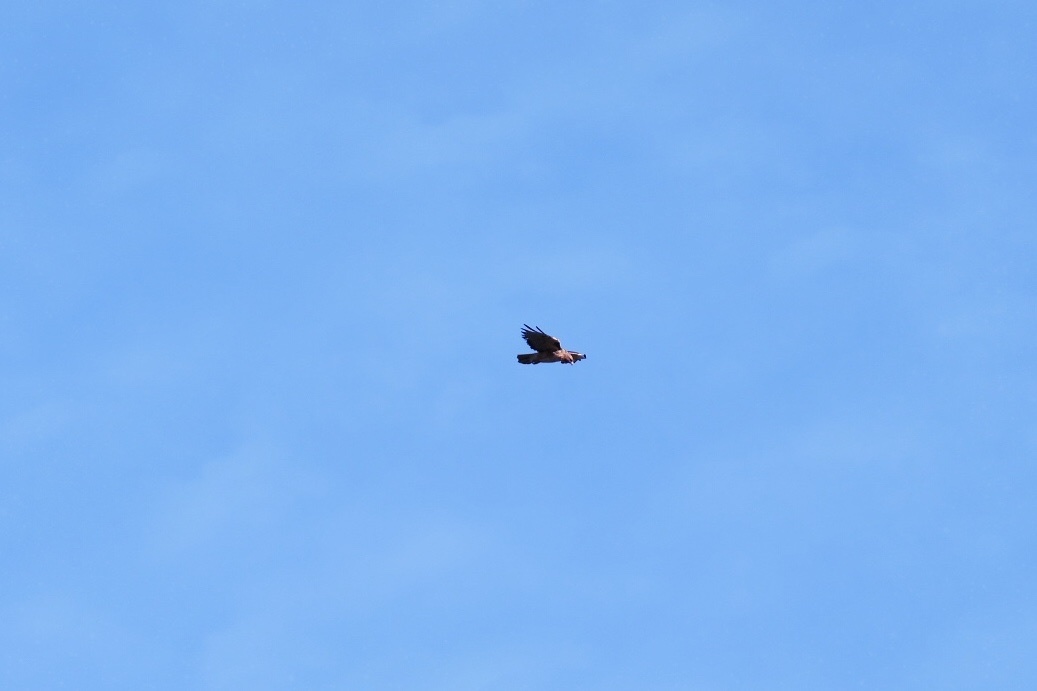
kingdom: Animalia
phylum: Chordata
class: Aves
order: Accipitriformes
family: Accipitridae
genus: Buteo
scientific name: Buteo jamaicensis
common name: Red-tailed hawk
